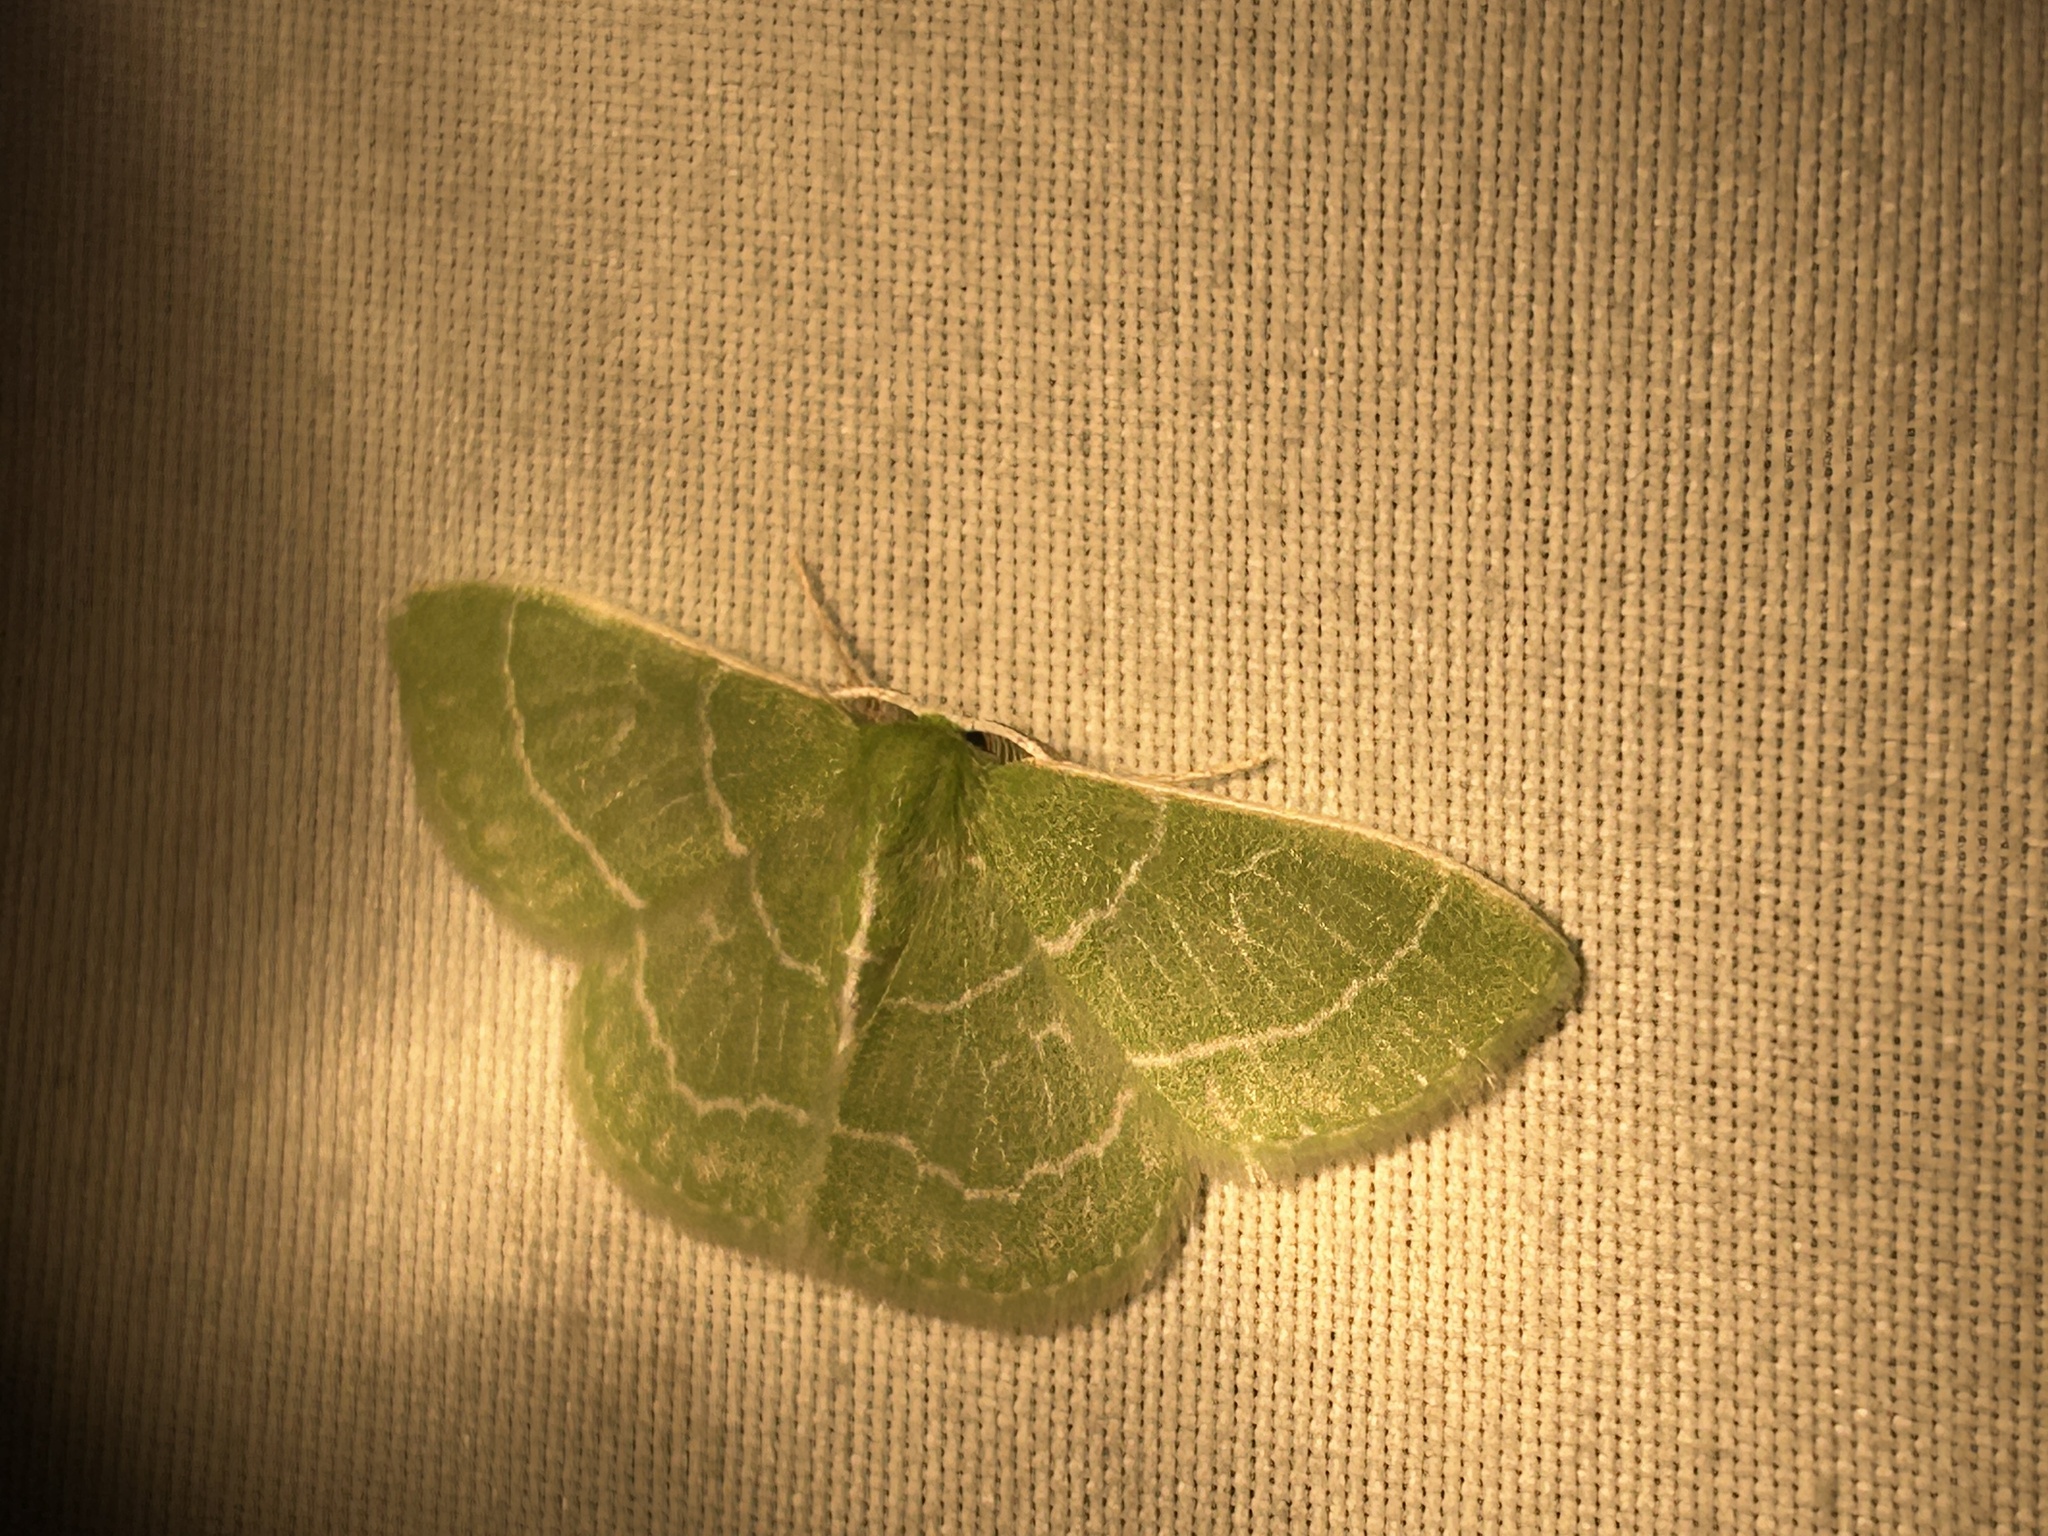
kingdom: Animalia
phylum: Arthropoda
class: Insecta
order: Lepidoptera
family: Geometridae
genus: Synchlora
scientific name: Synchlora aerata
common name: Wavy-lined emerald
